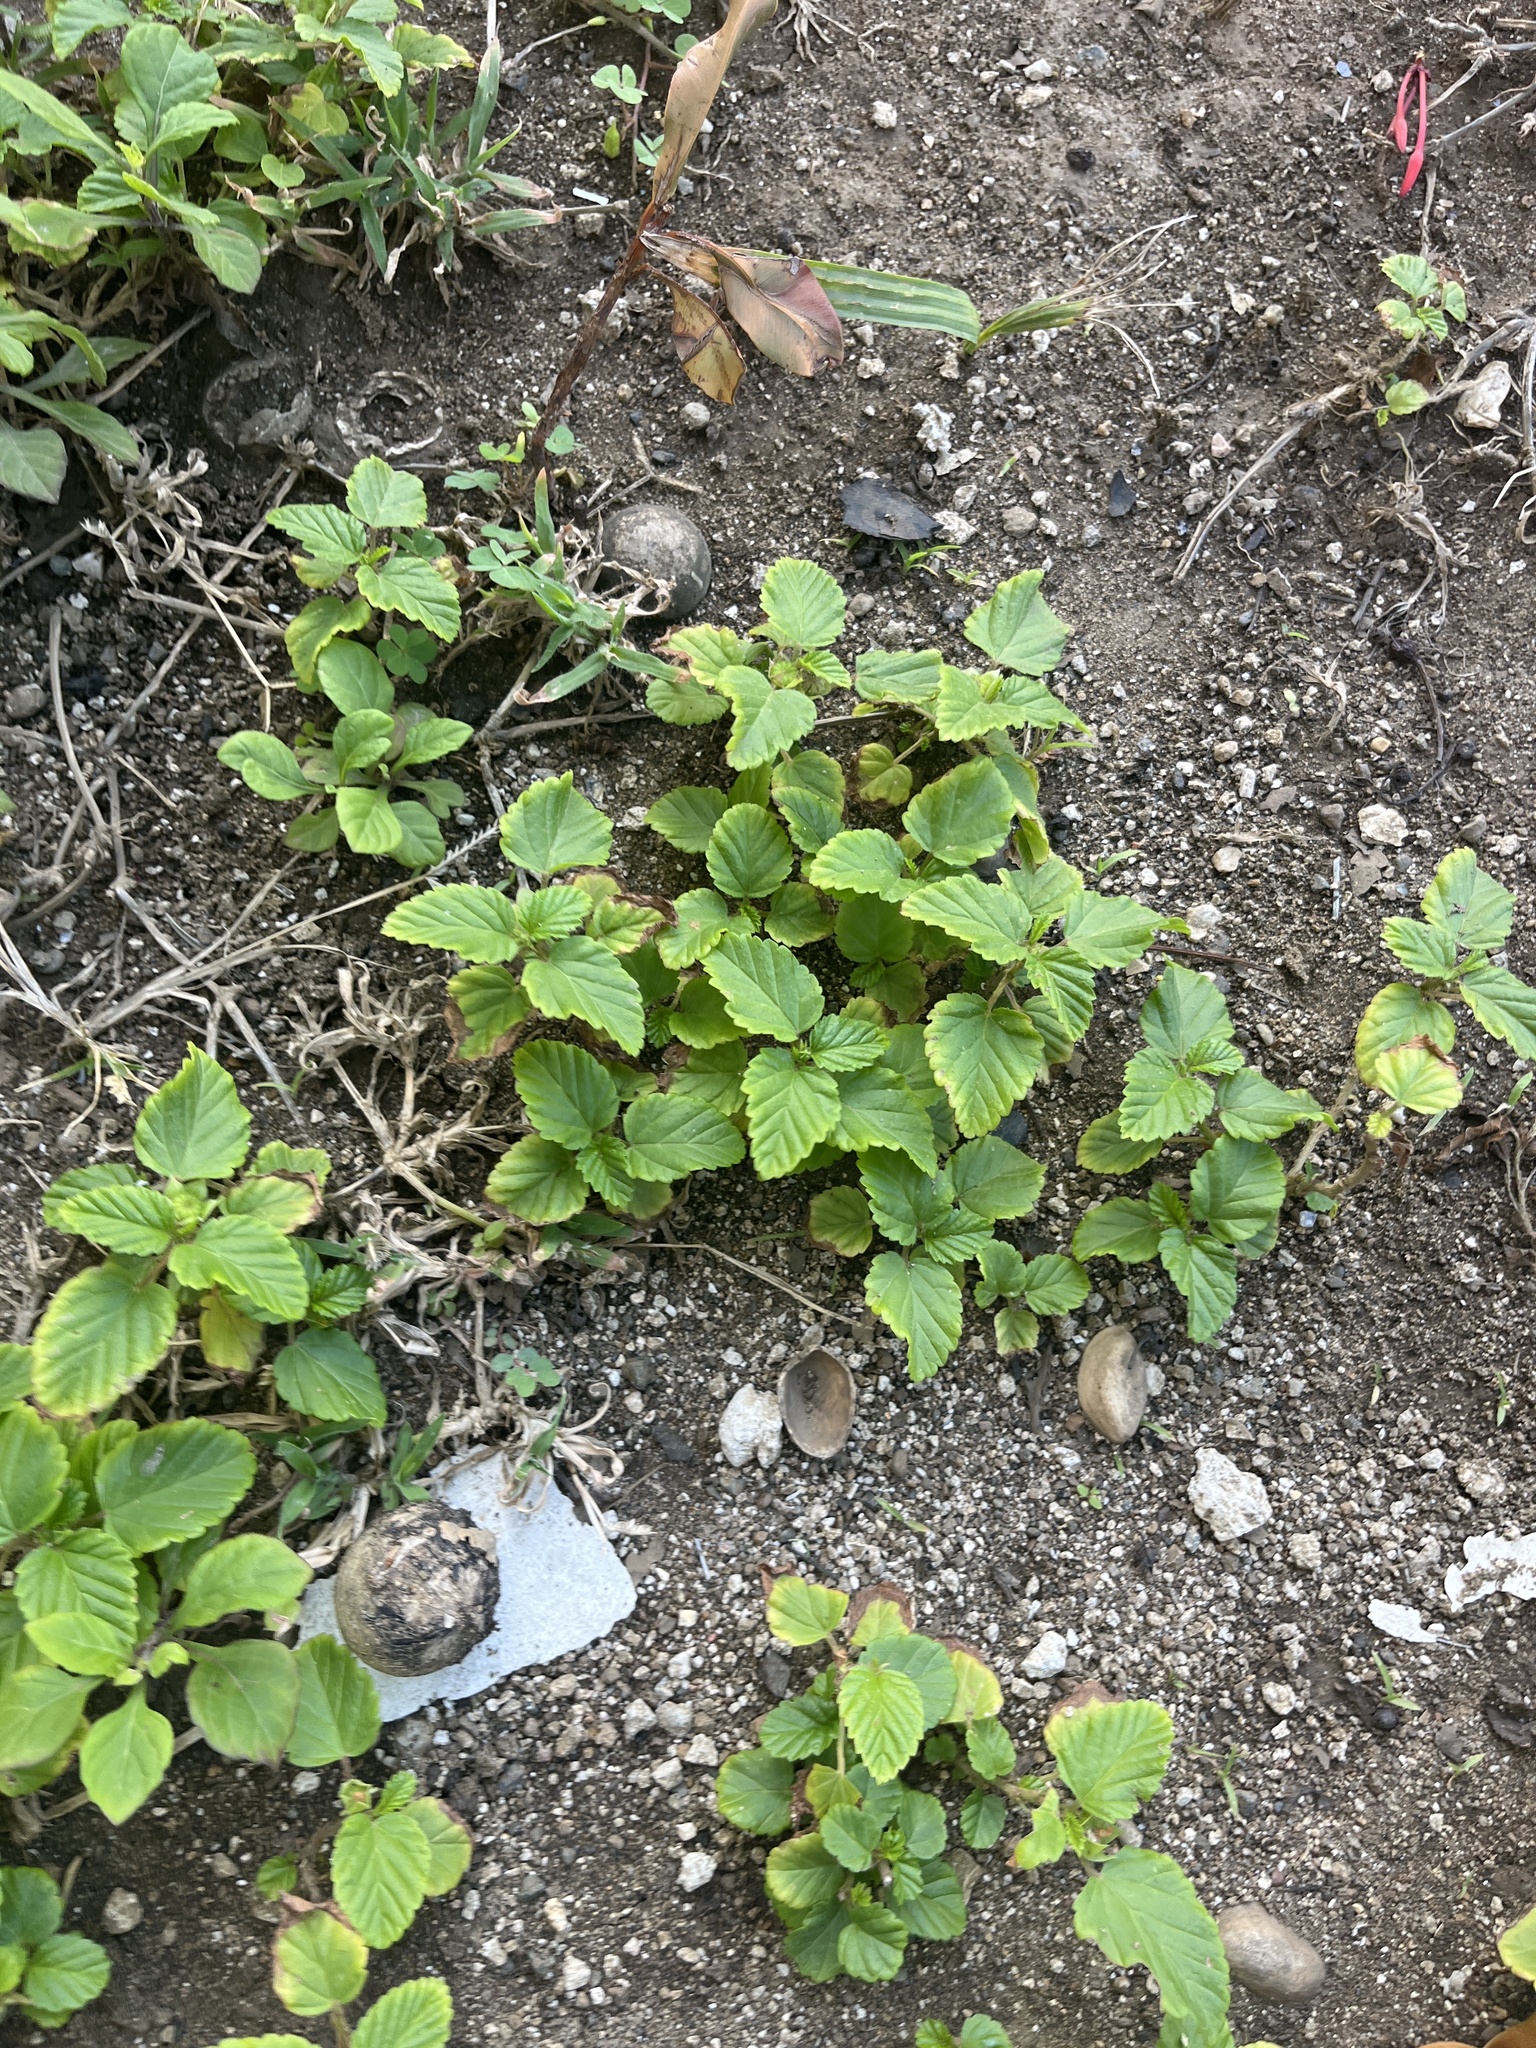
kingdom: Plantae
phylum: Tracheophyta
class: Magnoliopsida
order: Malvales
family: Malvaceae
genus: Malvastrum
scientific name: Malvastrum coromandelianum
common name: Threelobe false mallow
